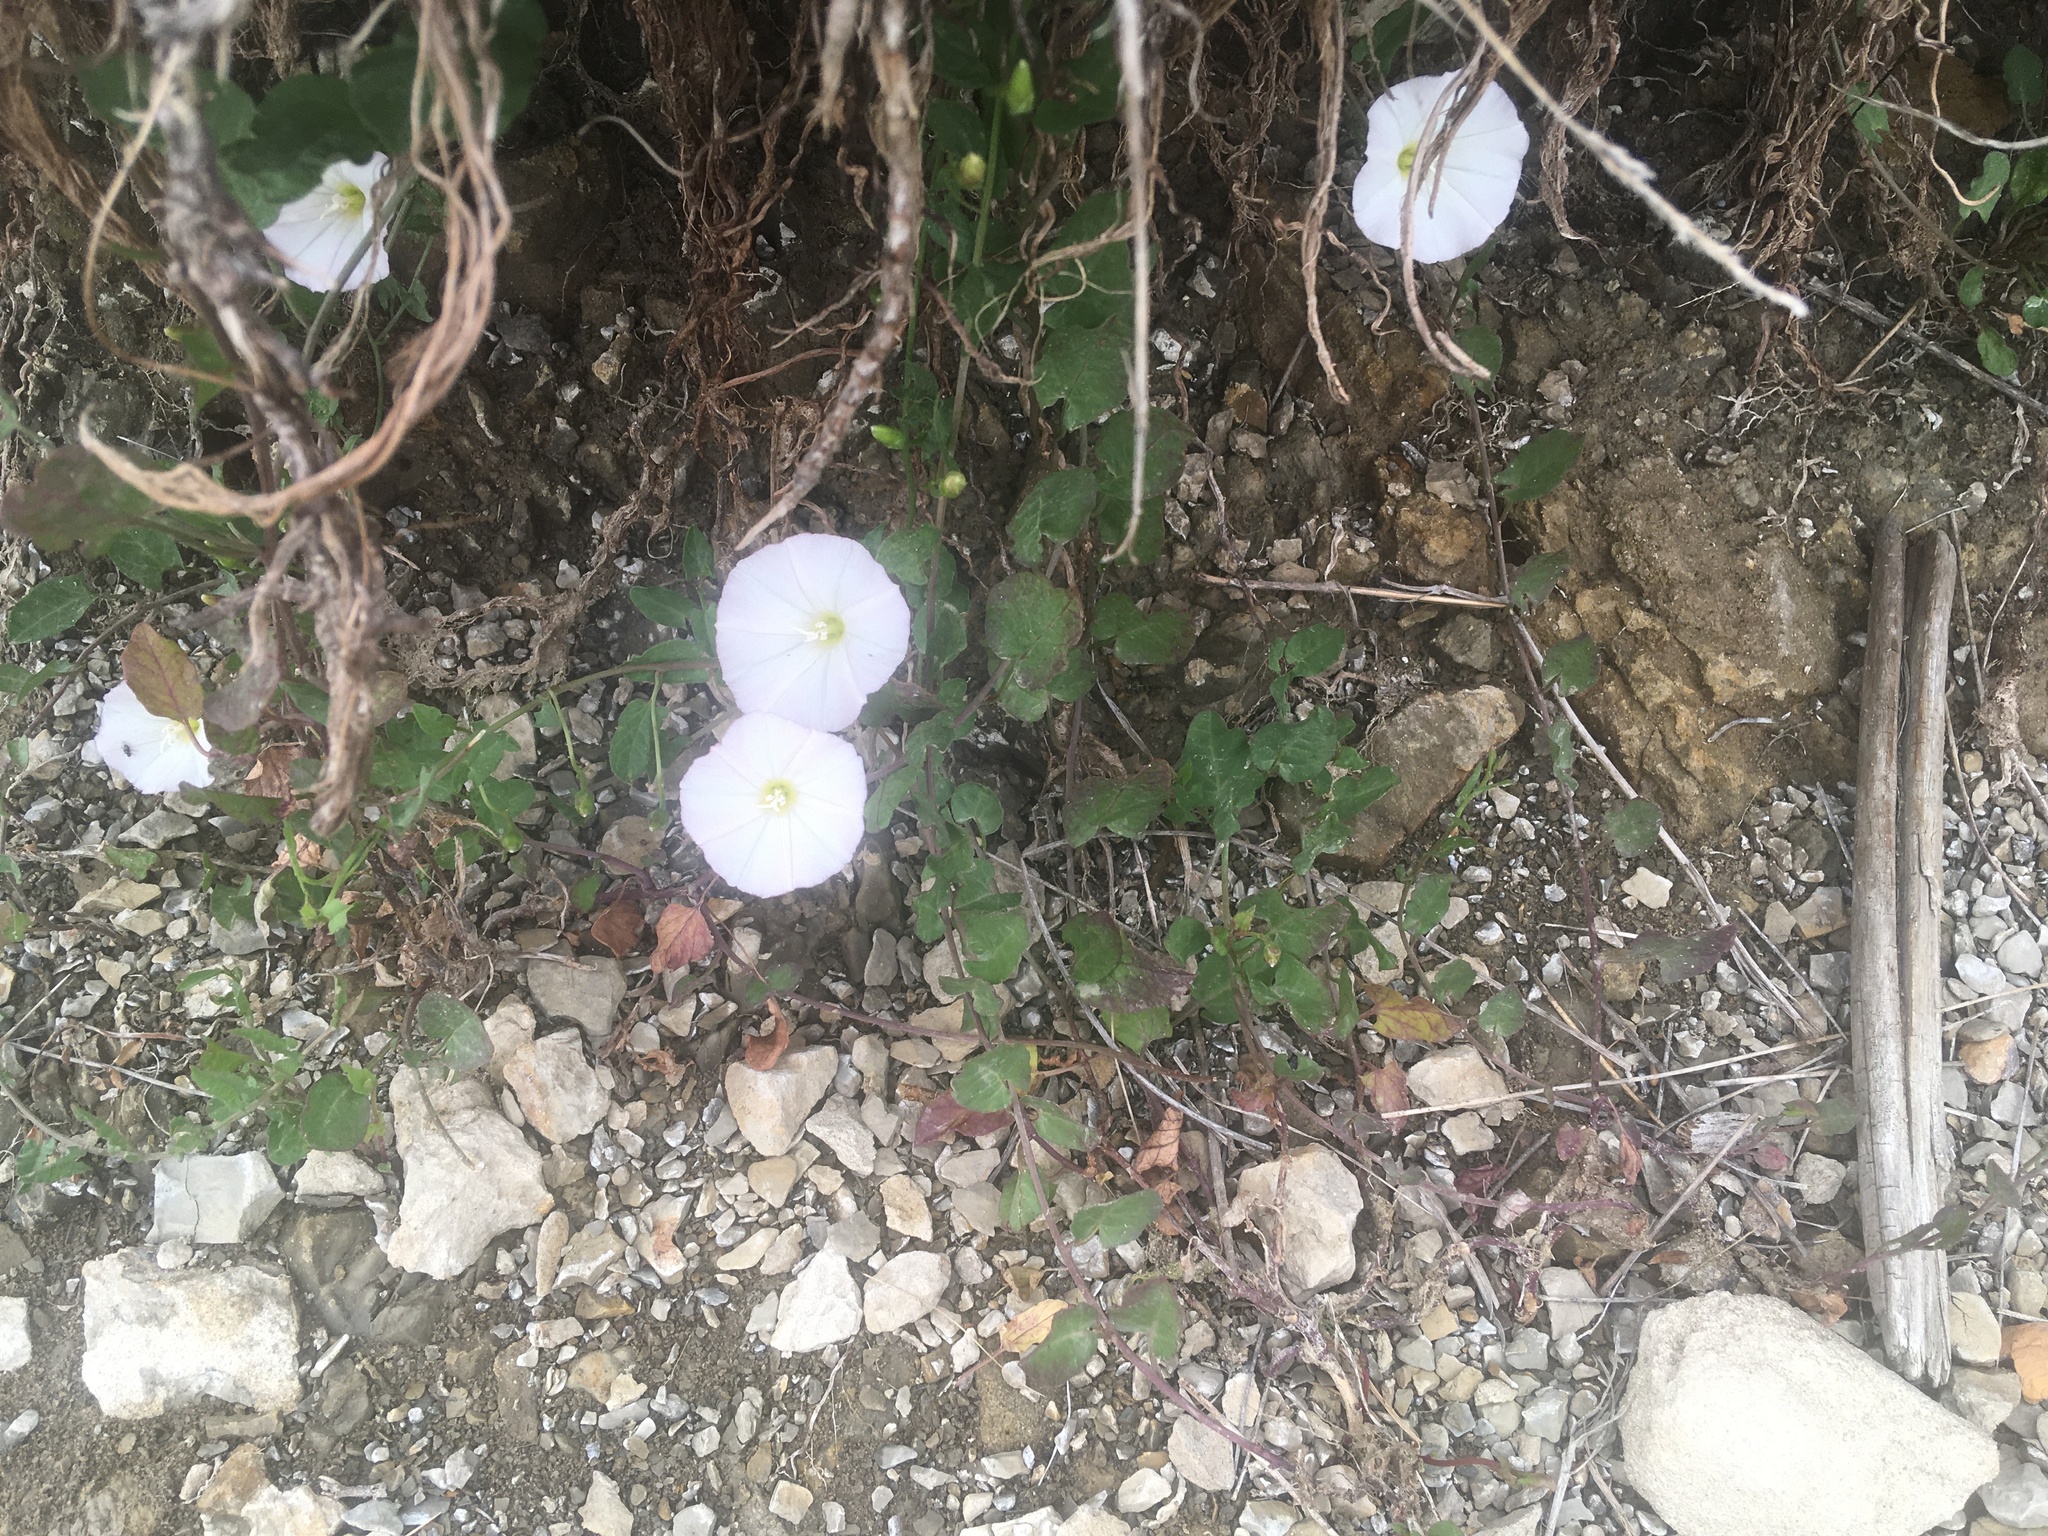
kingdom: Plantae
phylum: Tracheophyta
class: Magnoliopsida
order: Solanales
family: Convolvulaceae
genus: Convolvulus
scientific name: Convolvulus arvensis
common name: Field bindweed
